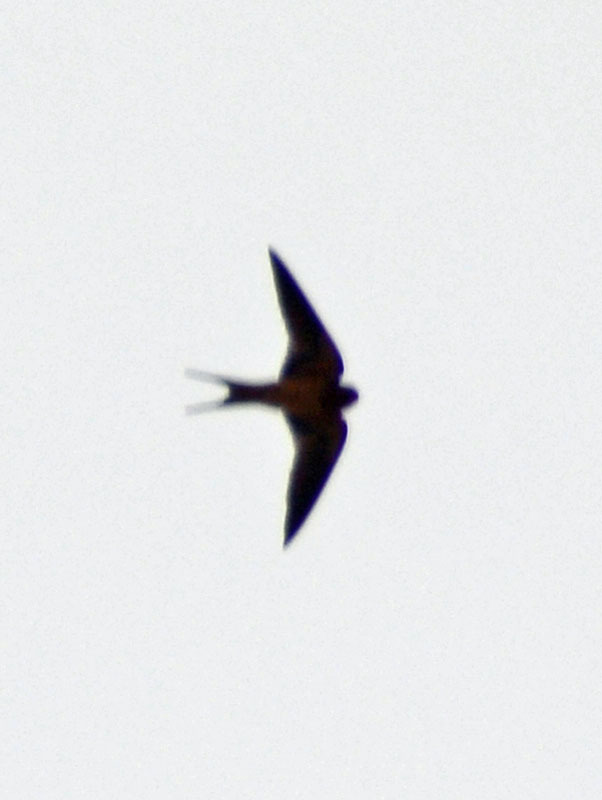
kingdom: Animalia
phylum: Chordata
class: Aves
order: Passeriformes
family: Hirundinidae
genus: Hirundo
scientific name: Hirundo rustica
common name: Barn swallow
